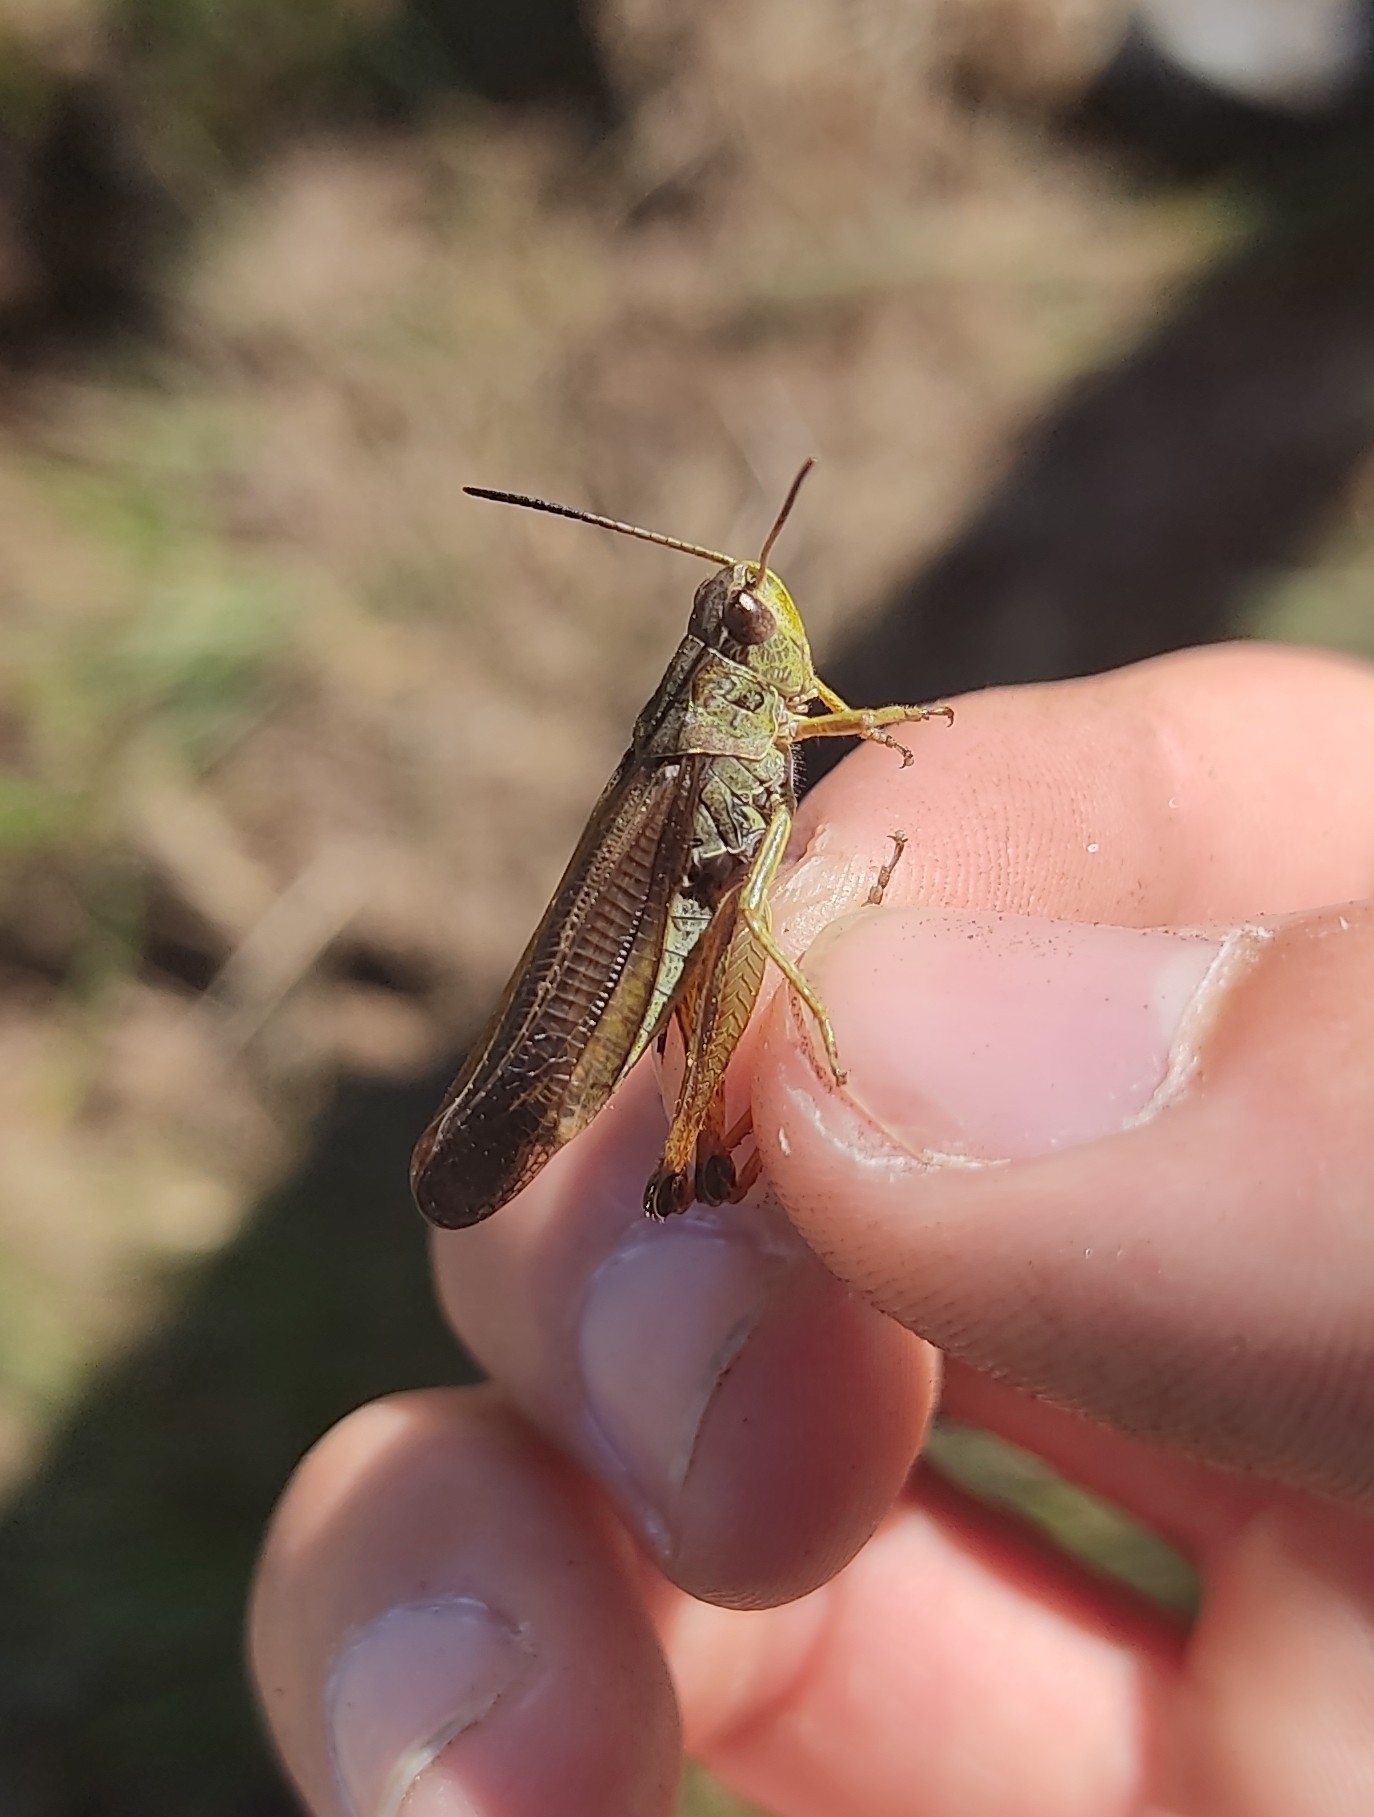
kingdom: Animalia
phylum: Arthropoda
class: Insecta
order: Orthoptera
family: Acrididae
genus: Stauroderus
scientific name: Stauroderus scalaris
